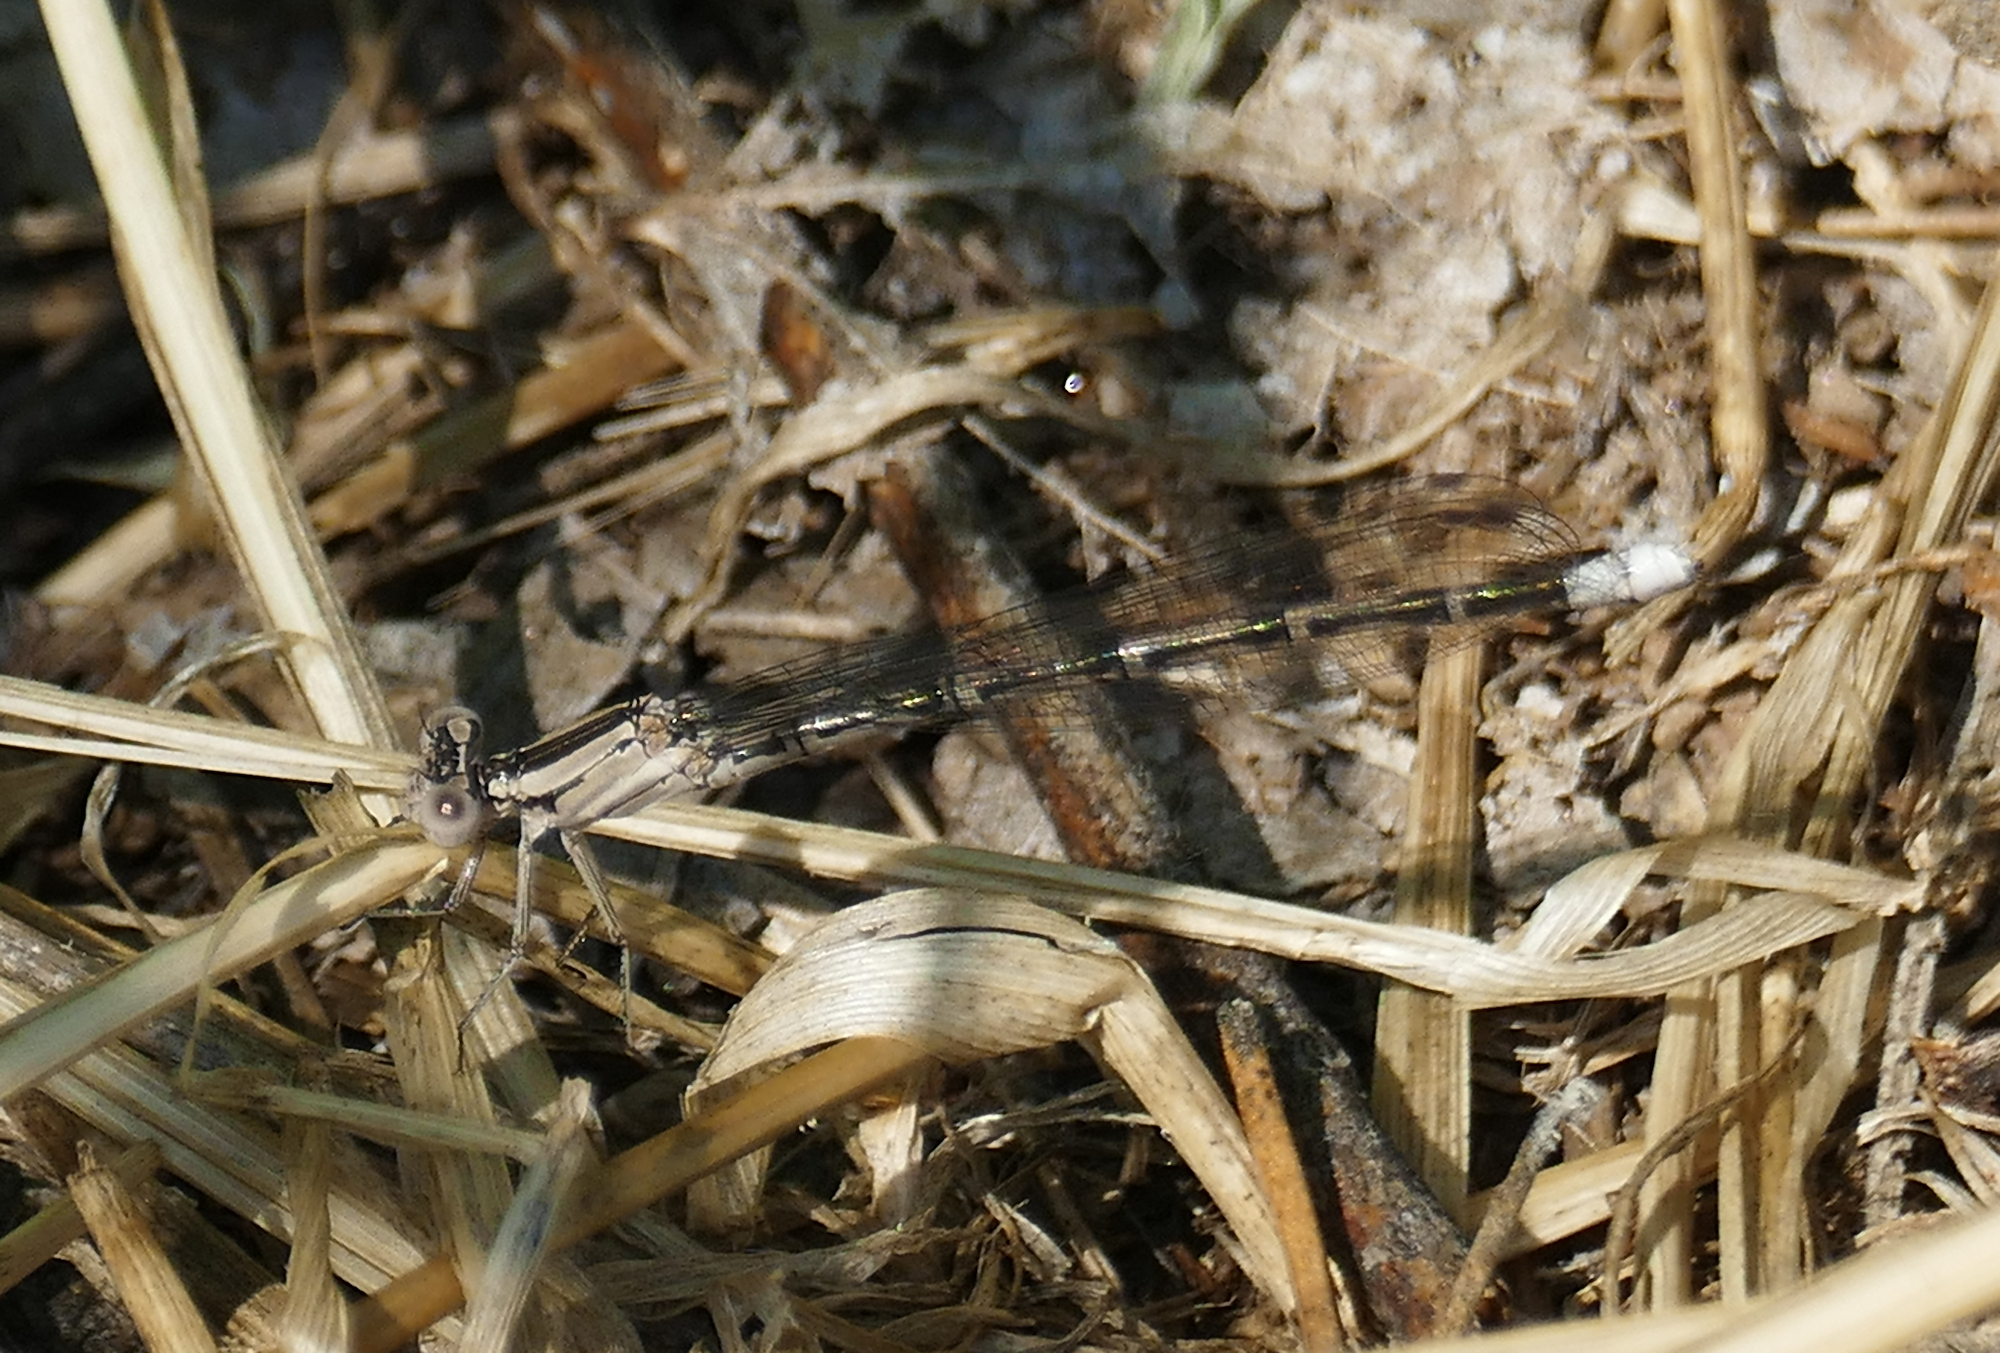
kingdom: Animalia
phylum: Arthropoda
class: Insecta
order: Odonata
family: Coenagrionidae
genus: Argia
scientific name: Argia funebris
